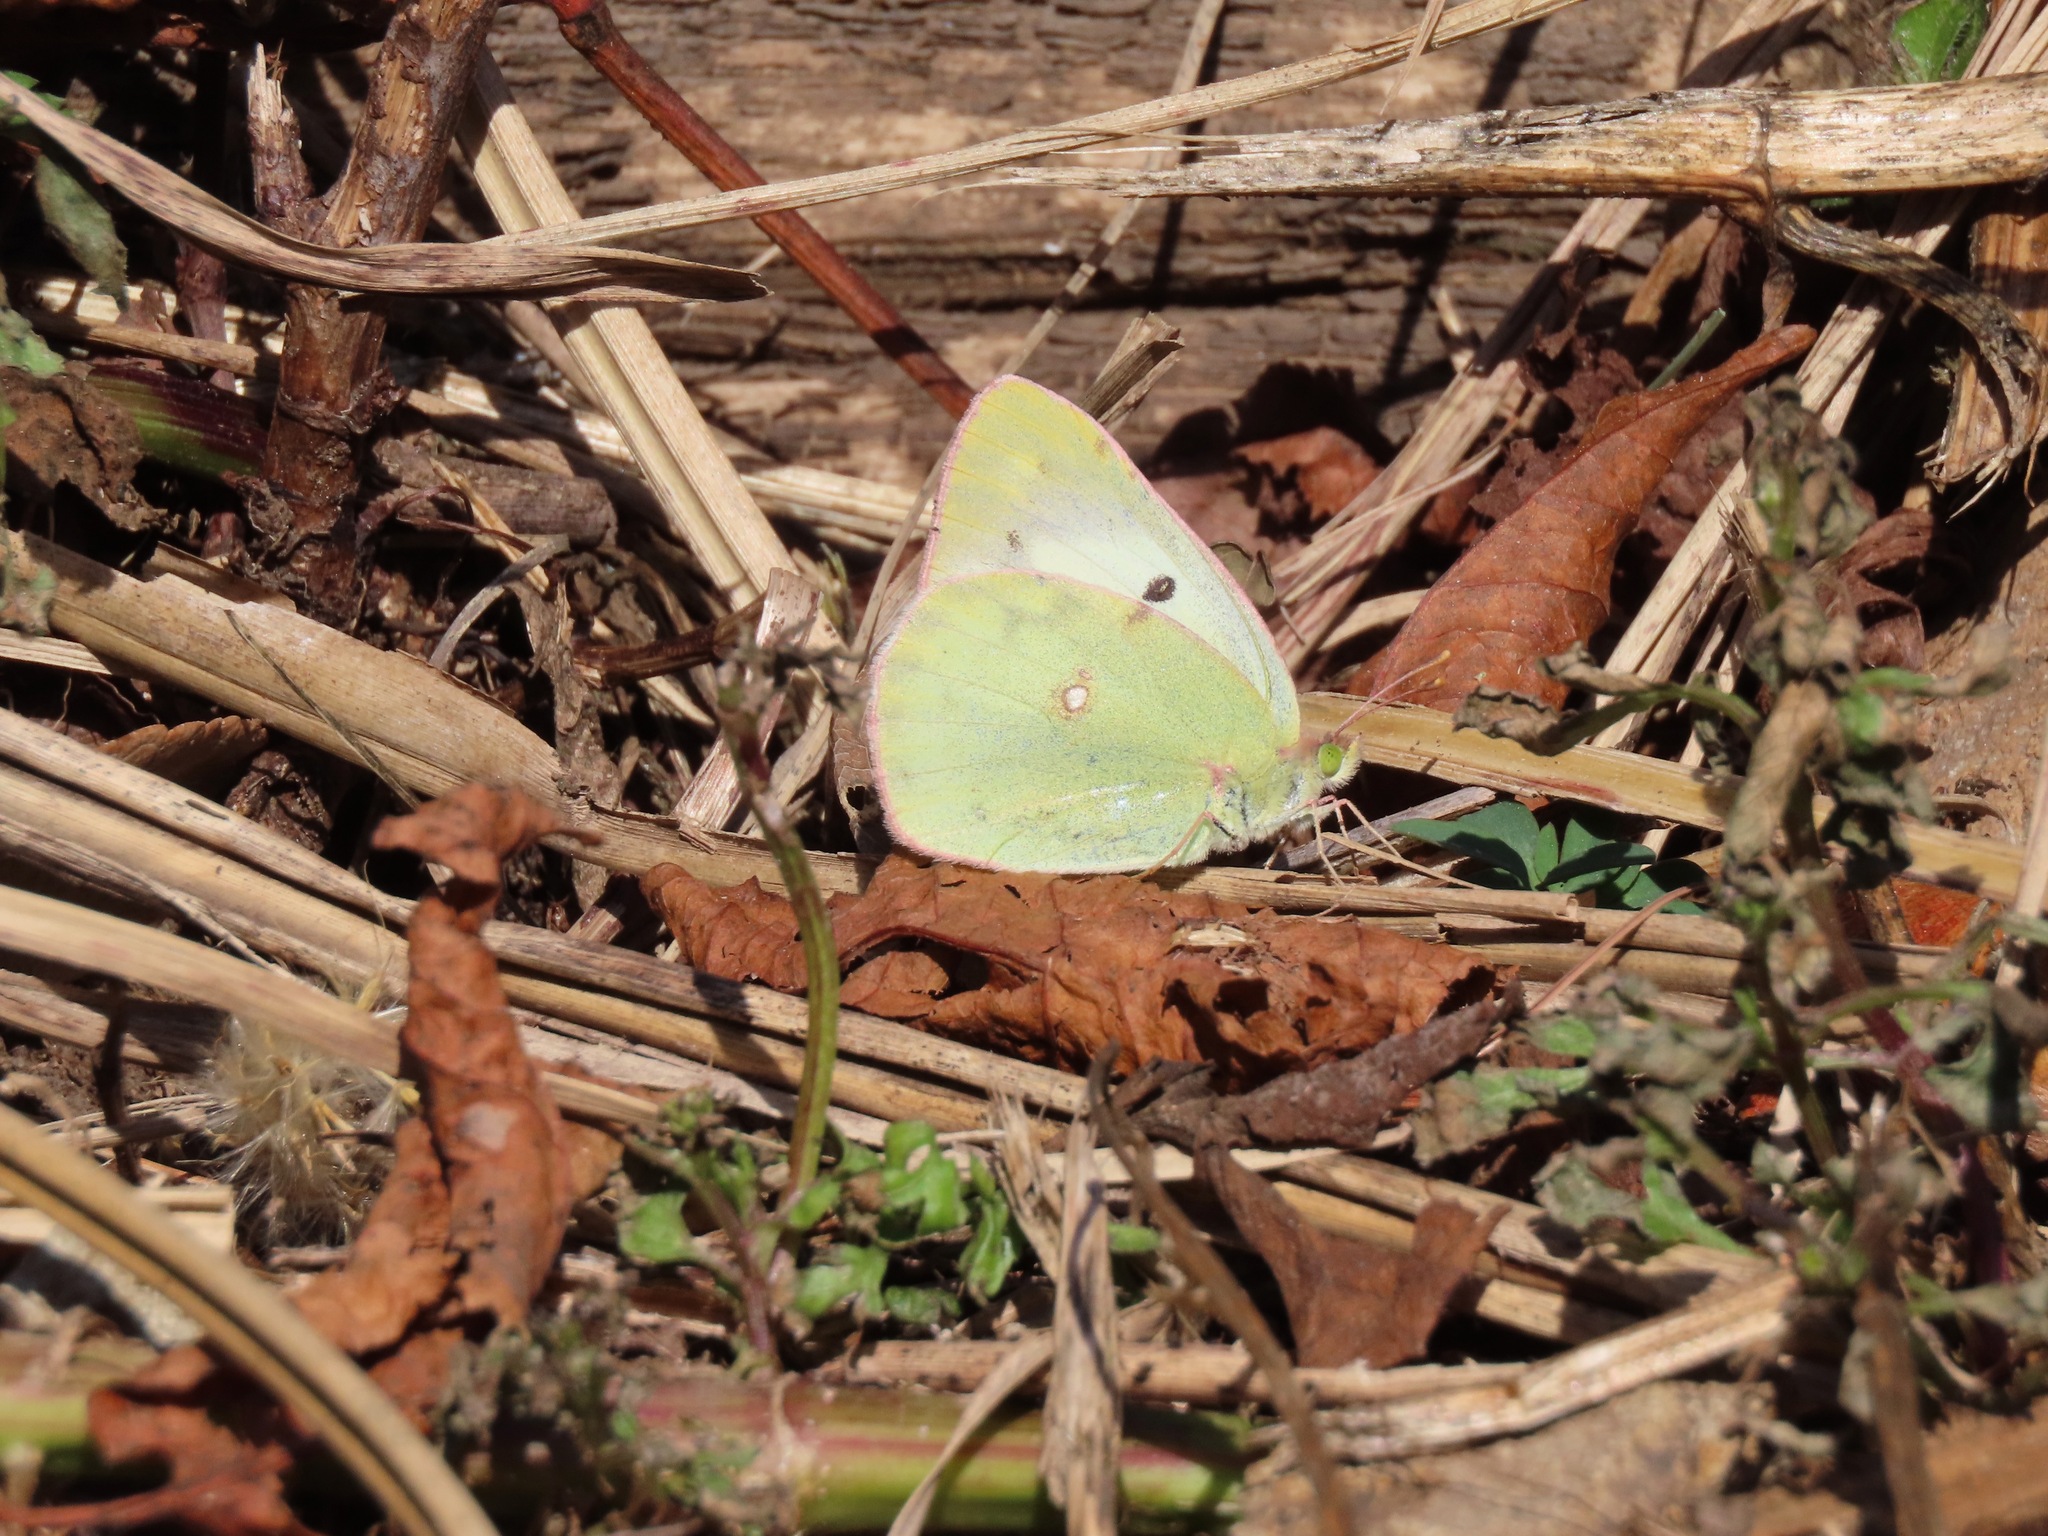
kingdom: Animalia
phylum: Arthropoda
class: Insecta
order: Lepidoptera
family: Pieridae
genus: Colias
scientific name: Colias poliographus
